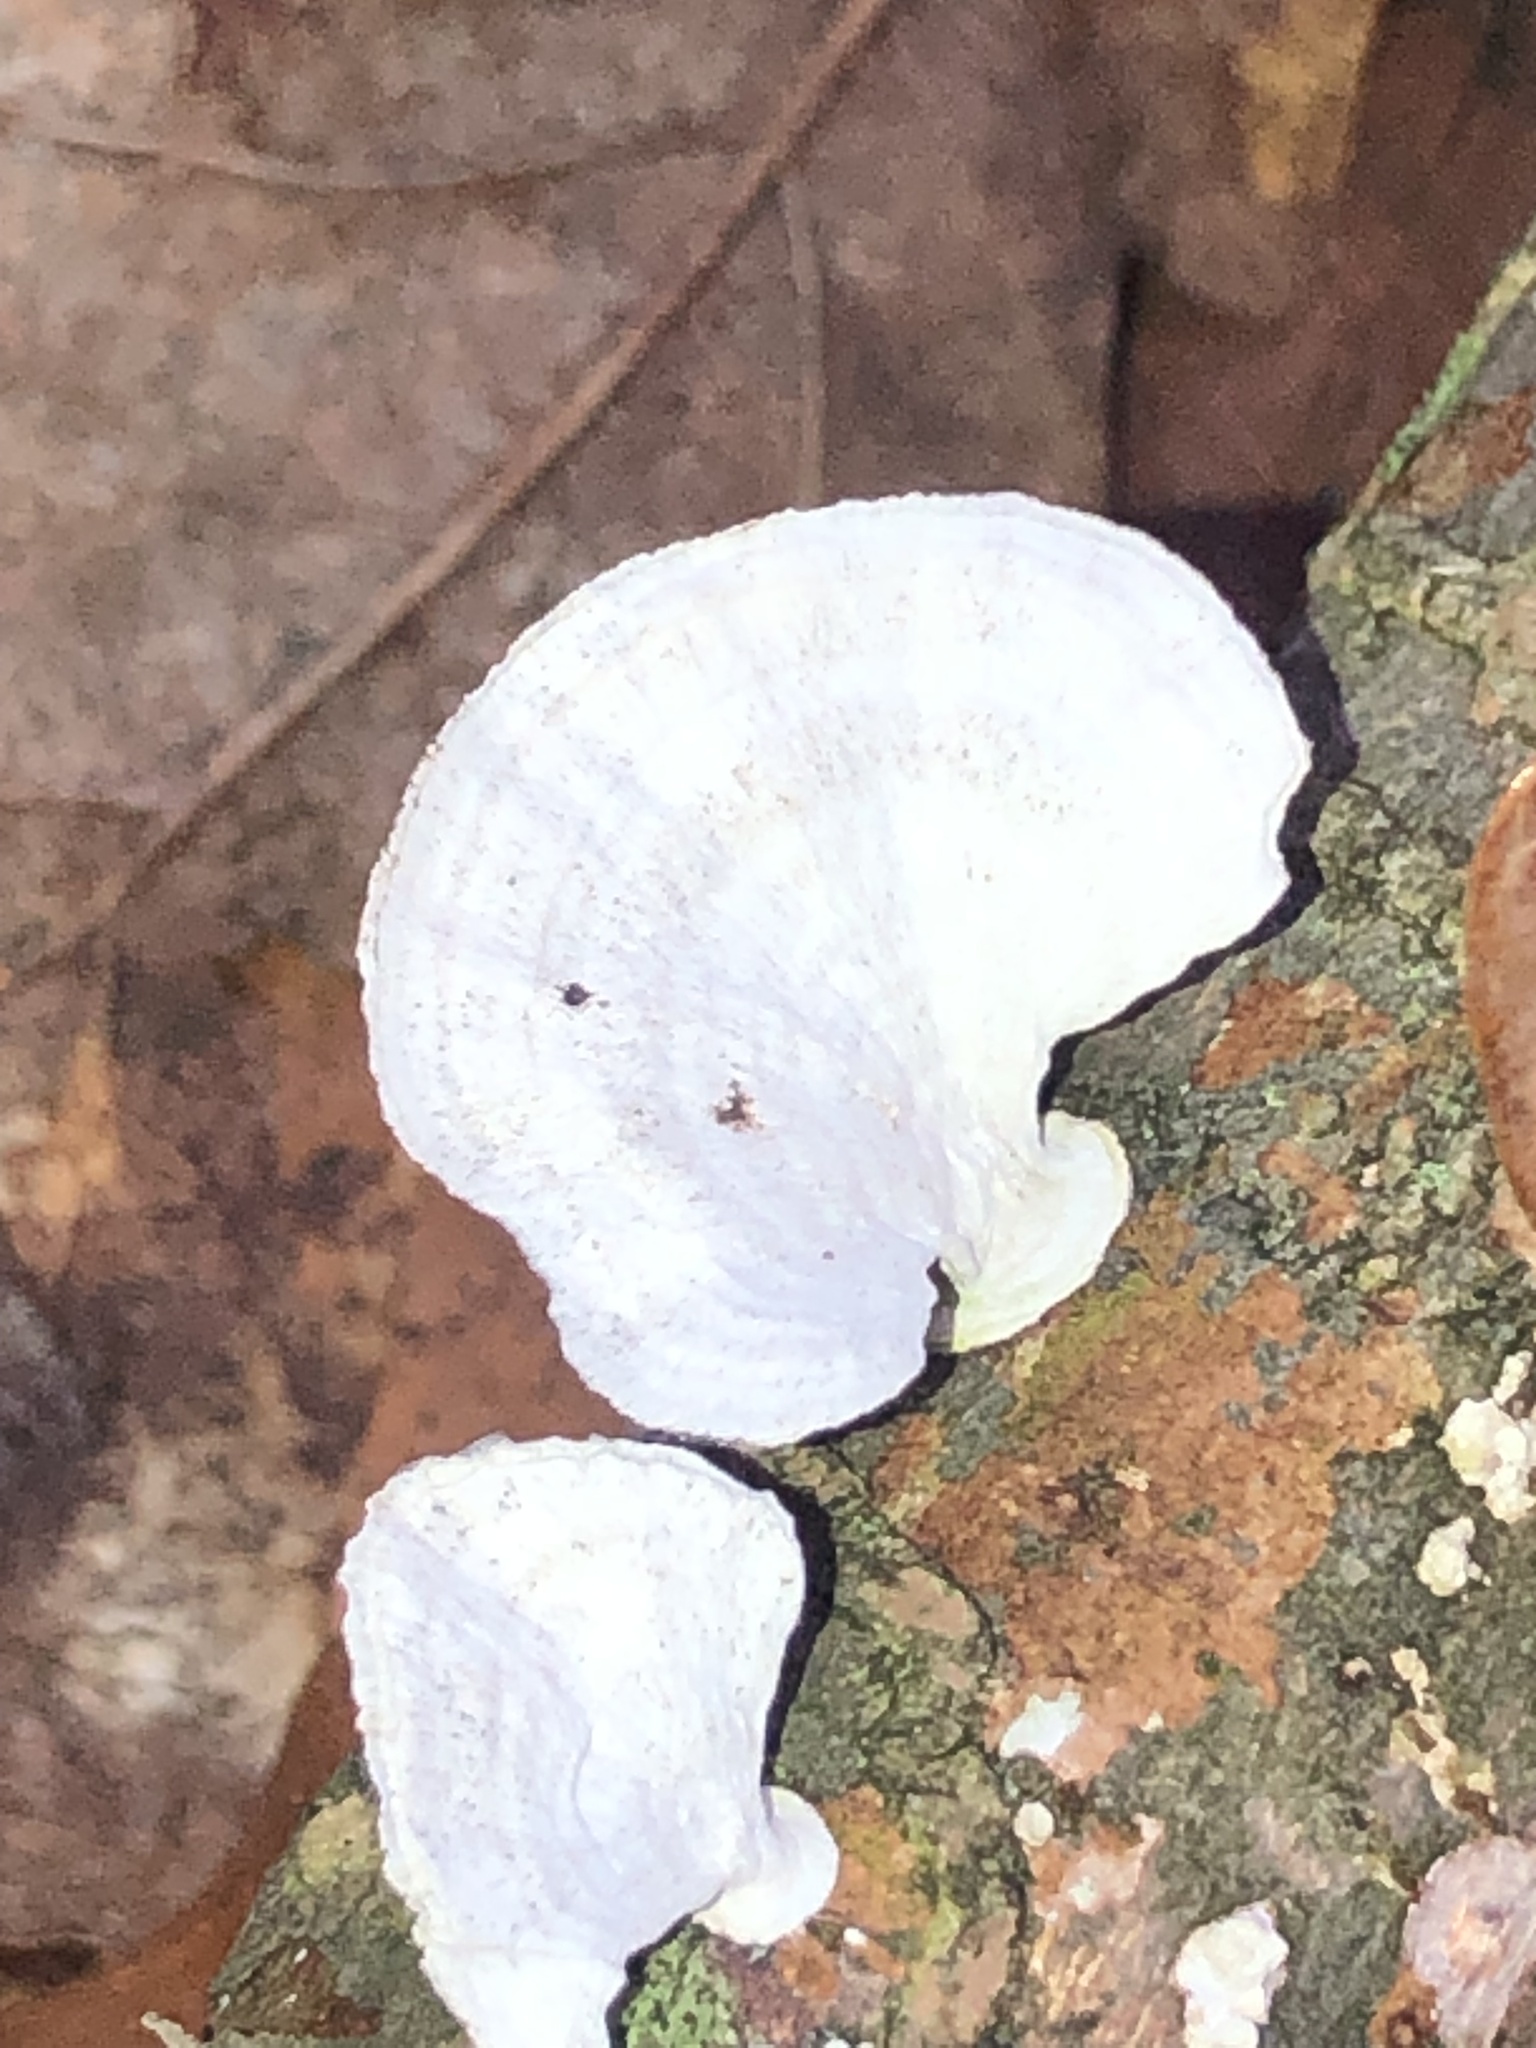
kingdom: Fungi
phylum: Basidiomycota
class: Agaricomycetes
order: Polyporales
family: Polyporaceae
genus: Poronidulus
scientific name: Poronidulus conchifer
